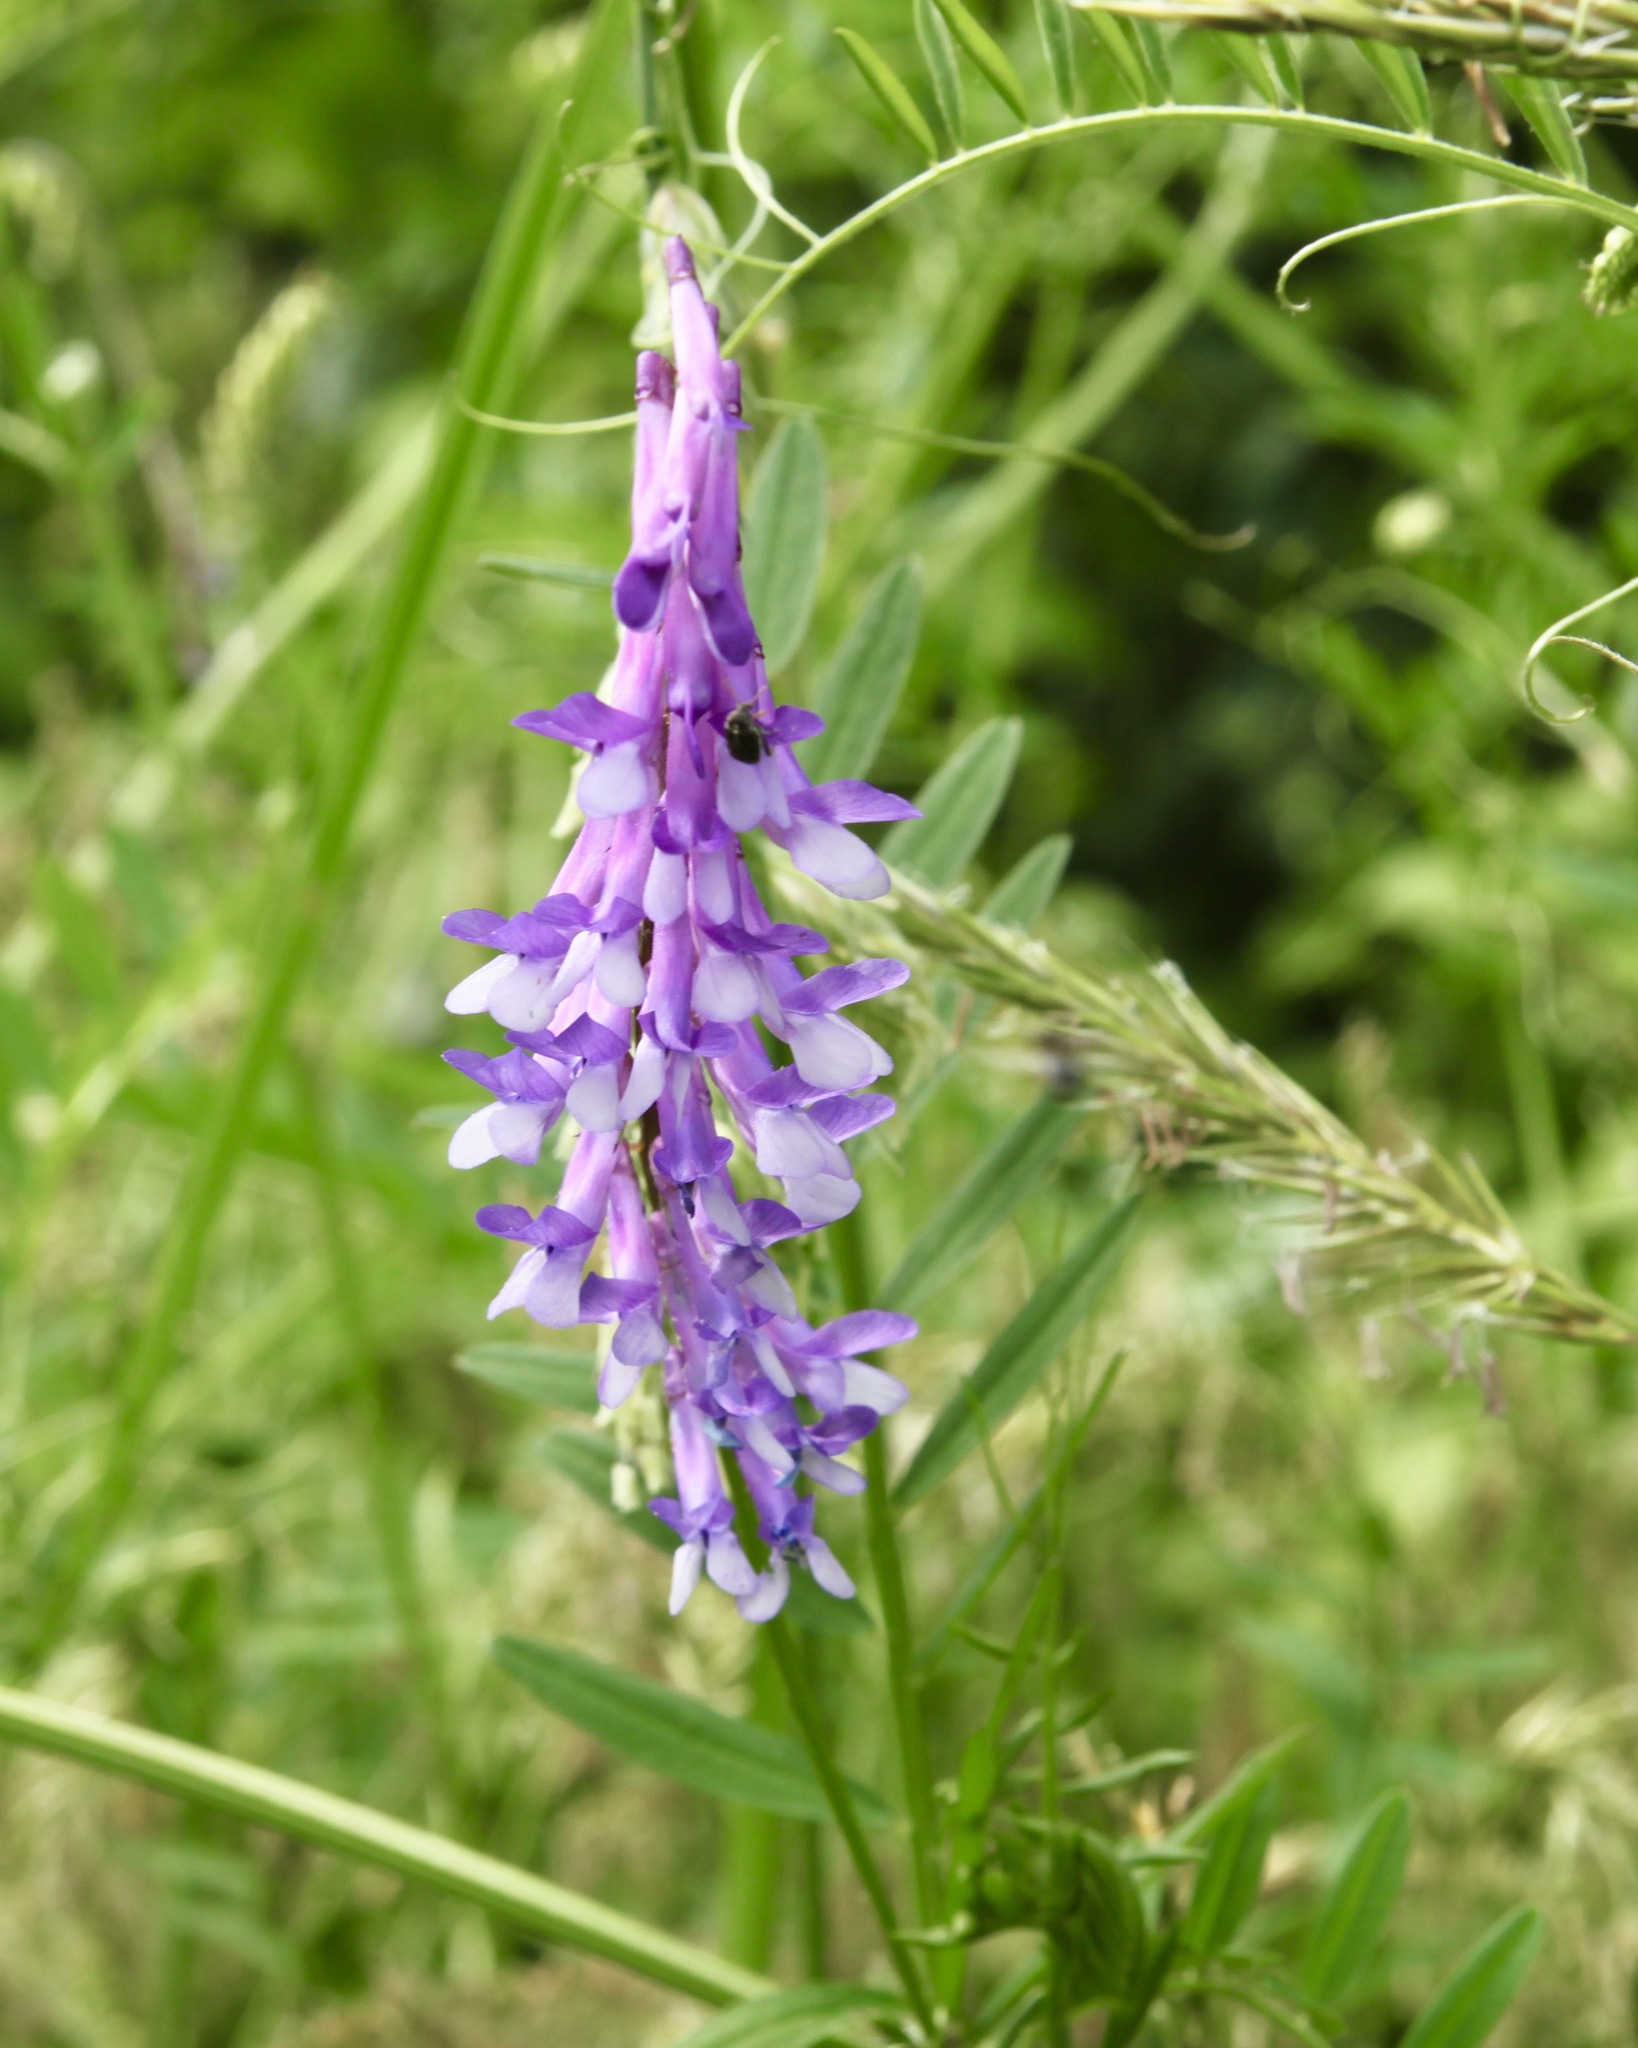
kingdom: Plantae
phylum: Tracheophyta
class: Magnoliopsida
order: Fabales
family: Fabaceae
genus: Vicia
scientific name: Vicia villosa
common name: Fodder vetch
